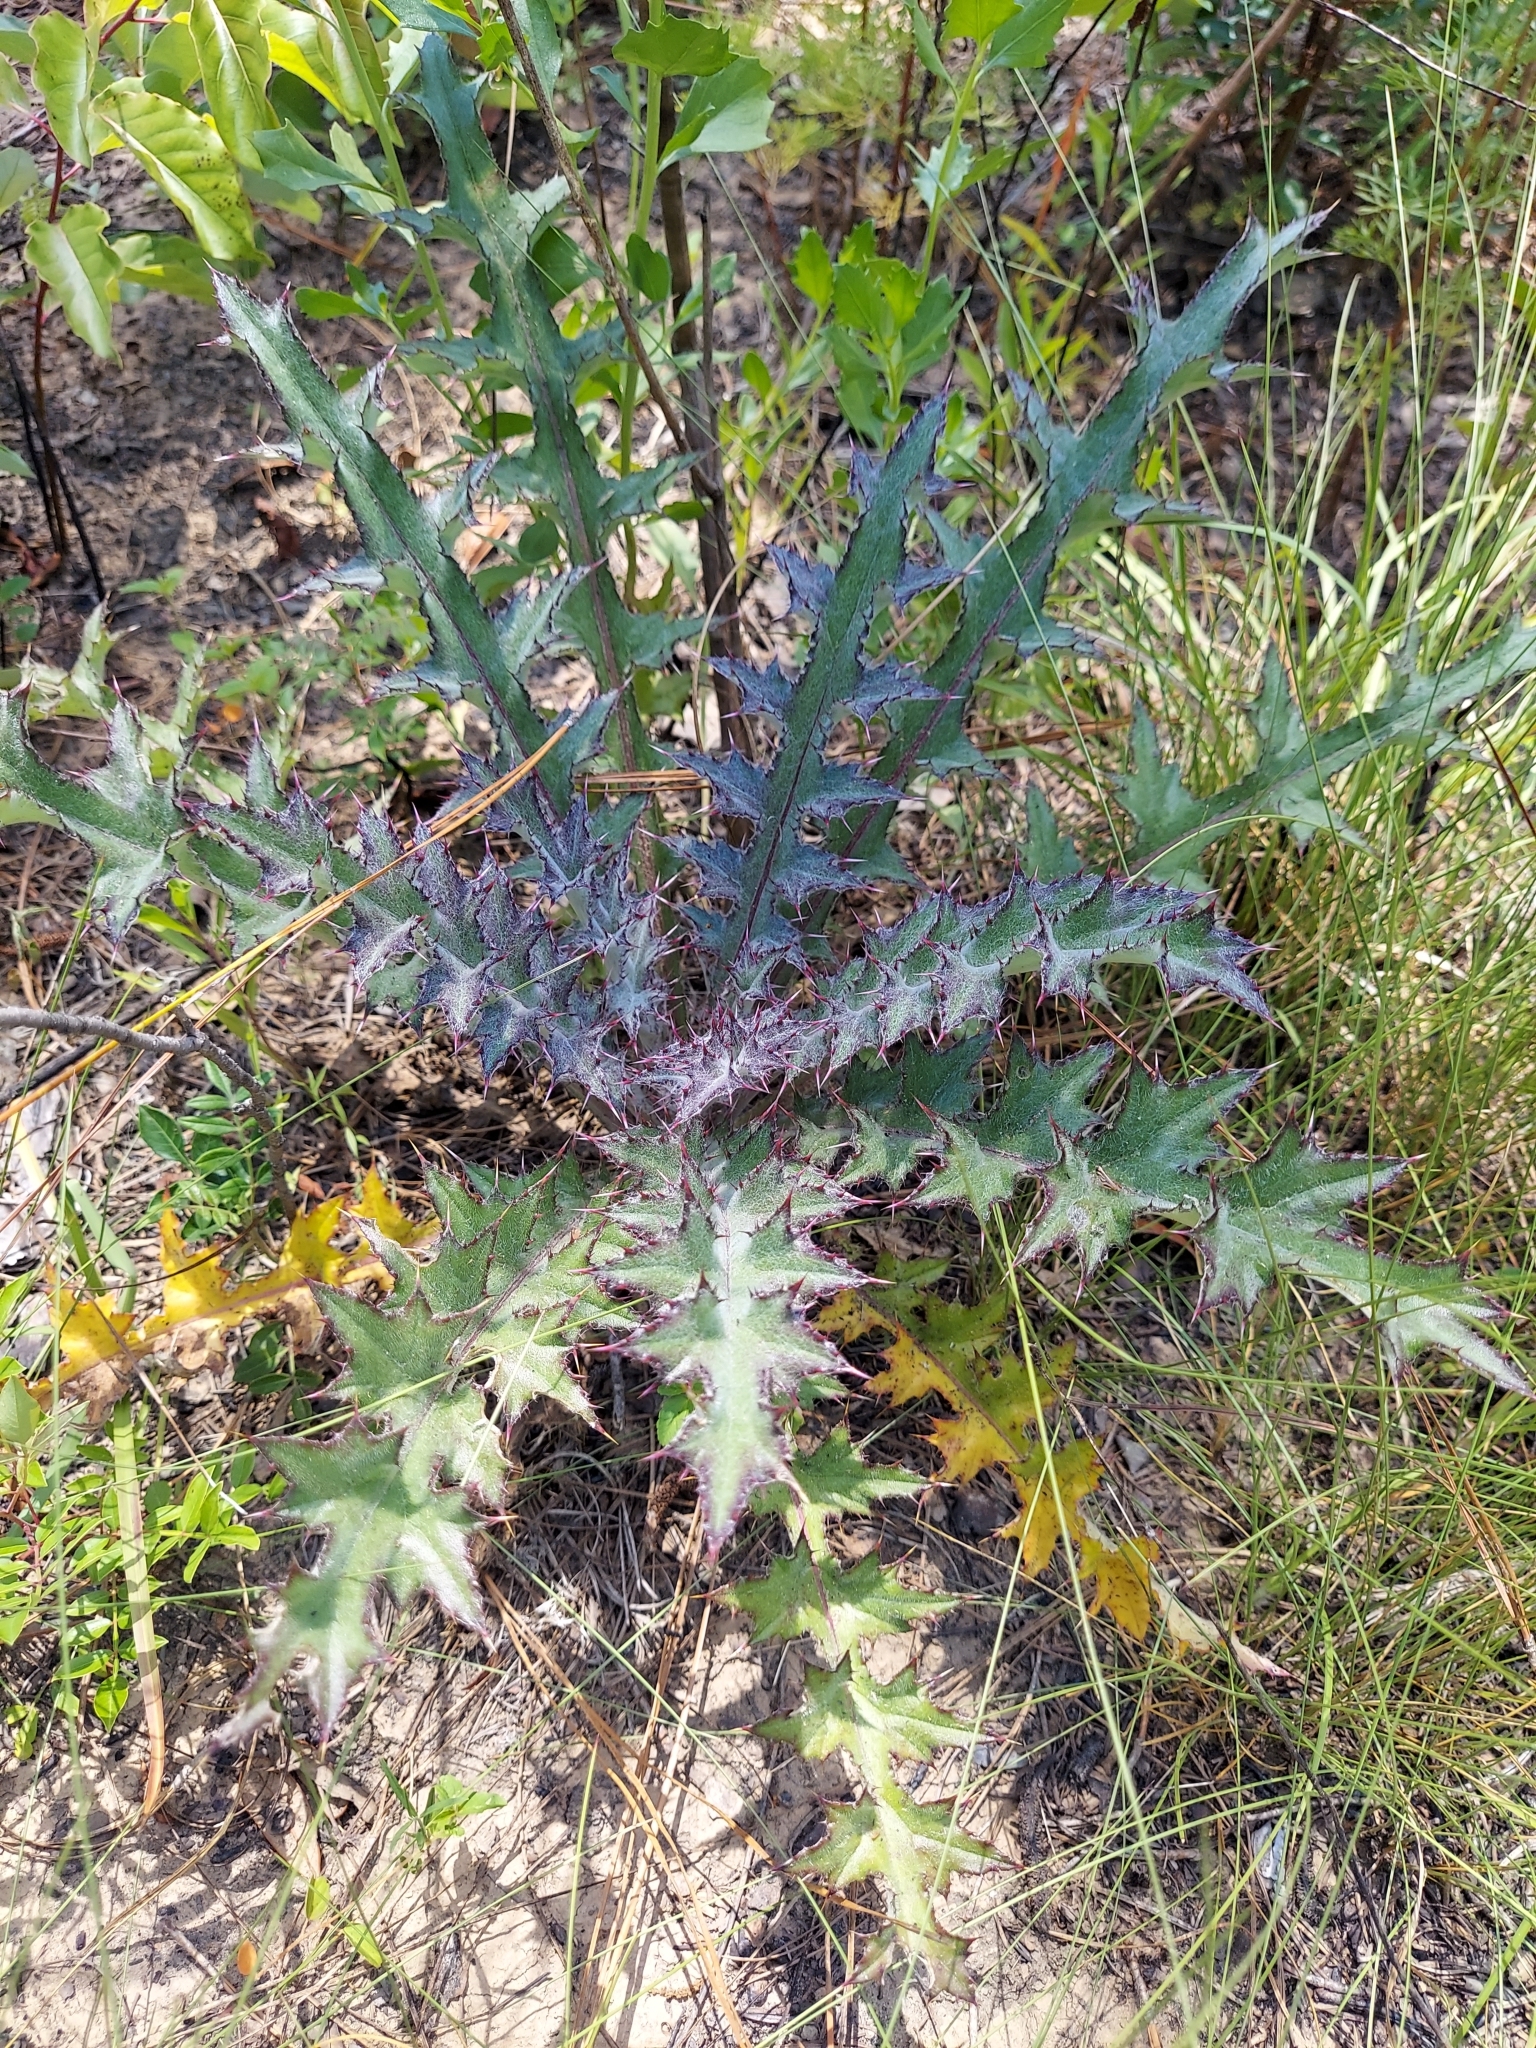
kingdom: Plantae
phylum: Tracheophyta
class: Magnoliopsida
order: Asterales
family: Asteraceae
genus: Cirsium
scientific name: Cirsium horridulum
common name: Bristly thistle
